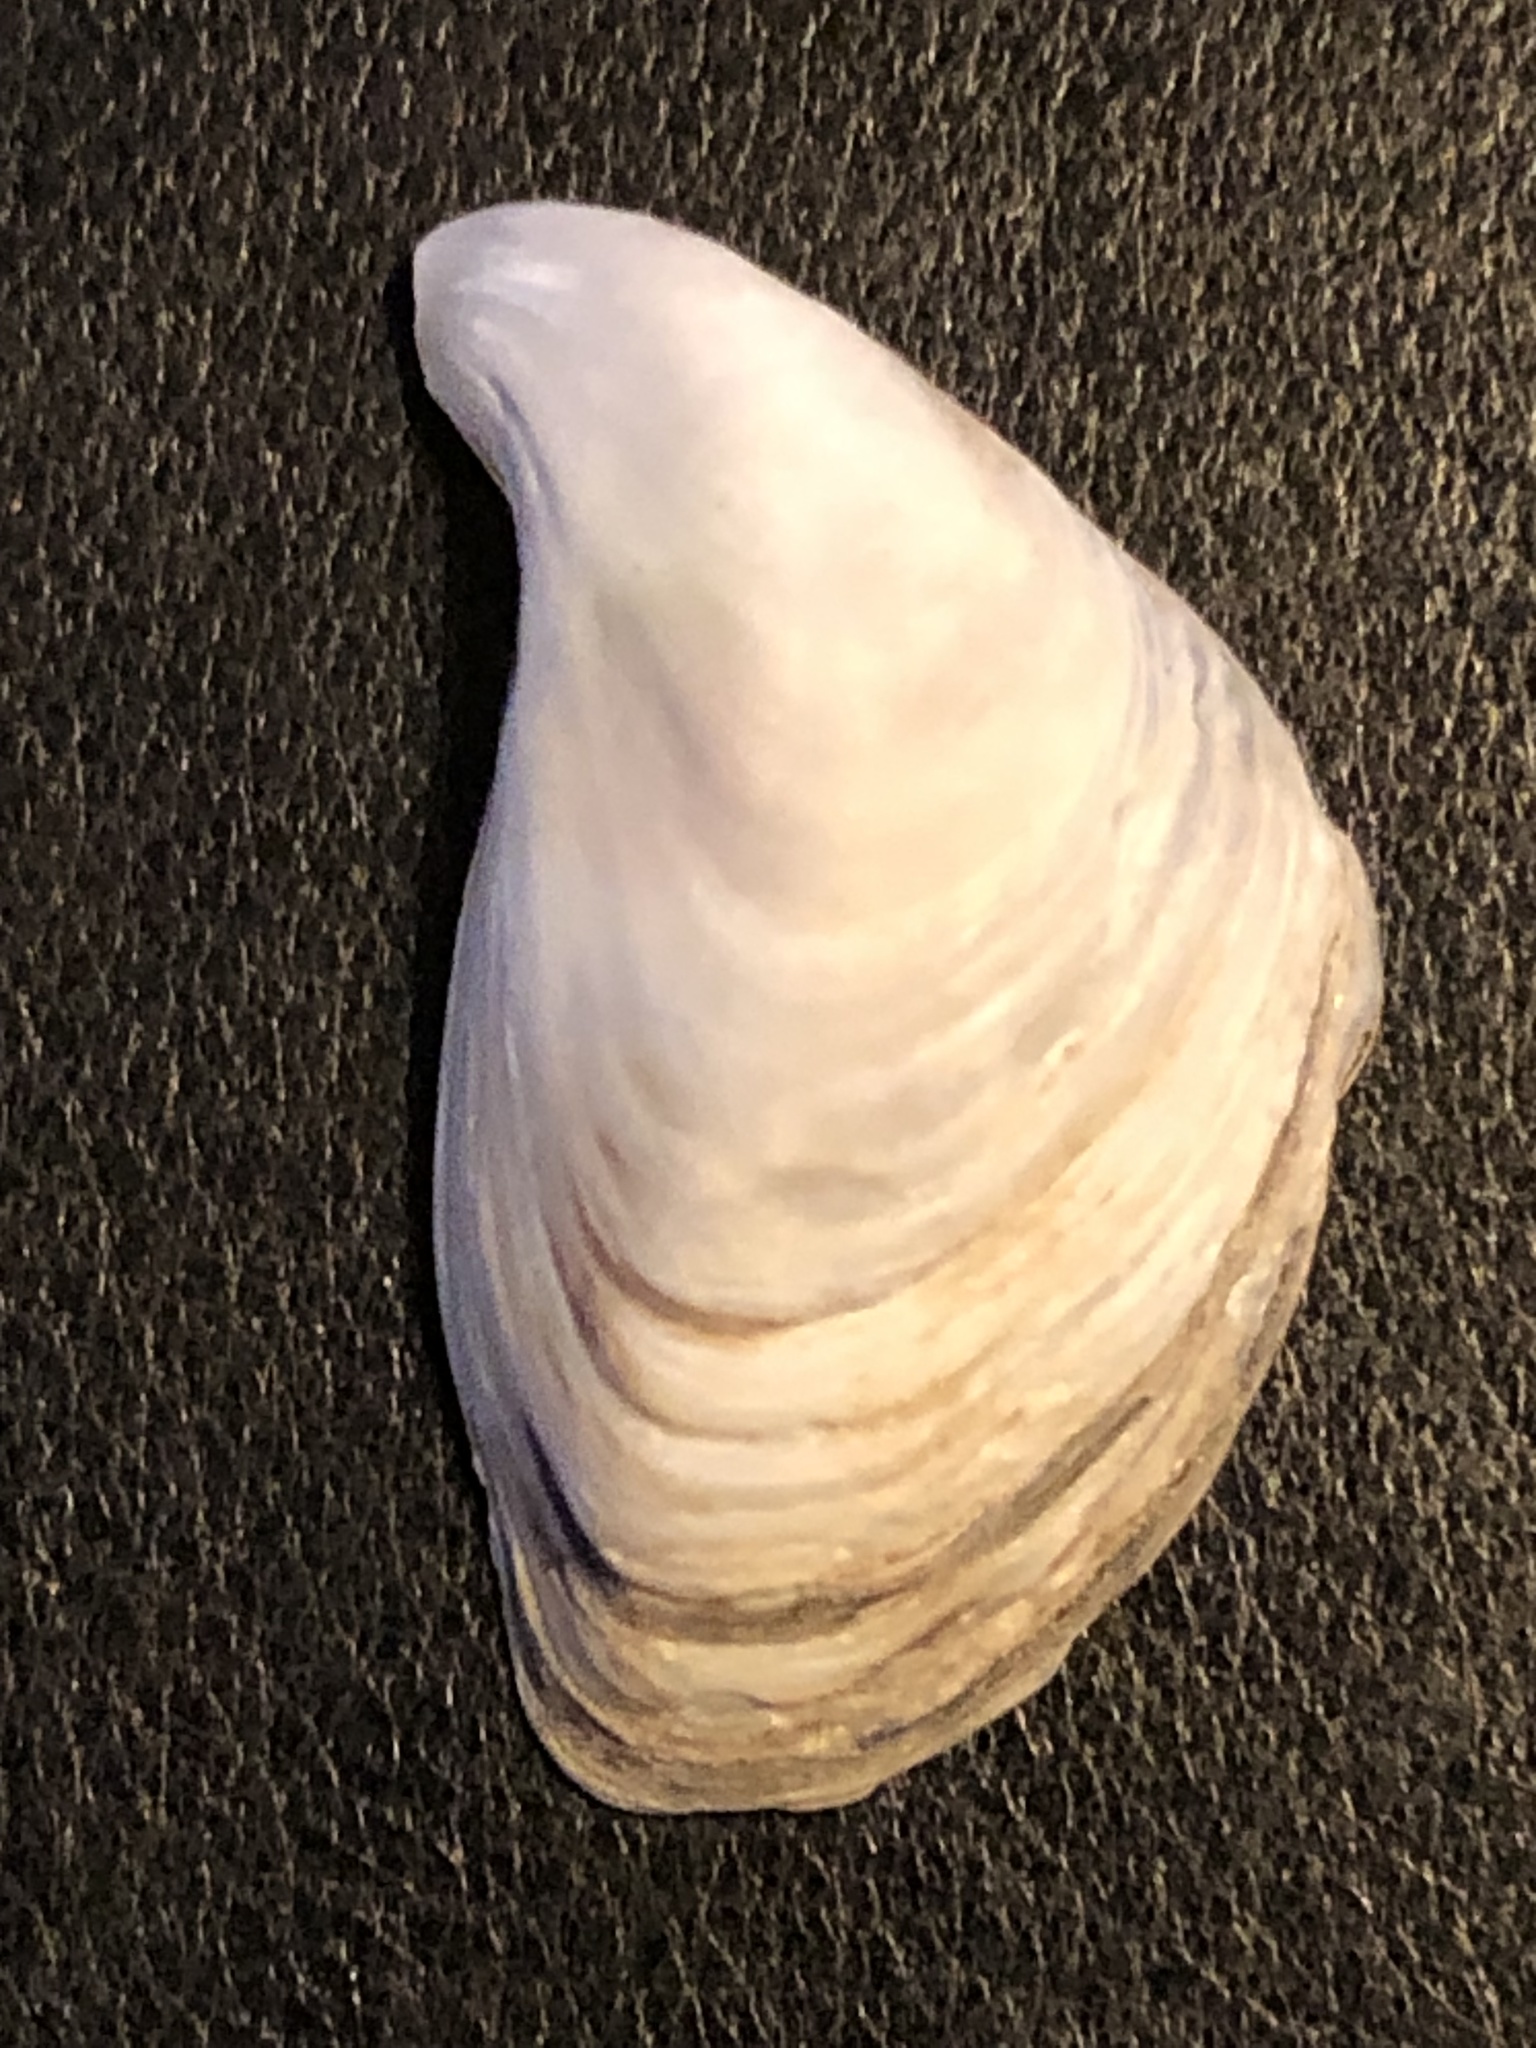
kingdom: Animalia
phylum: Mollusca
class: Bivalvia
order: Myida
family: Dreissenidae
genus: Dreissena
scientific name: Dreissena bugensis
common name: Quagga mussel
